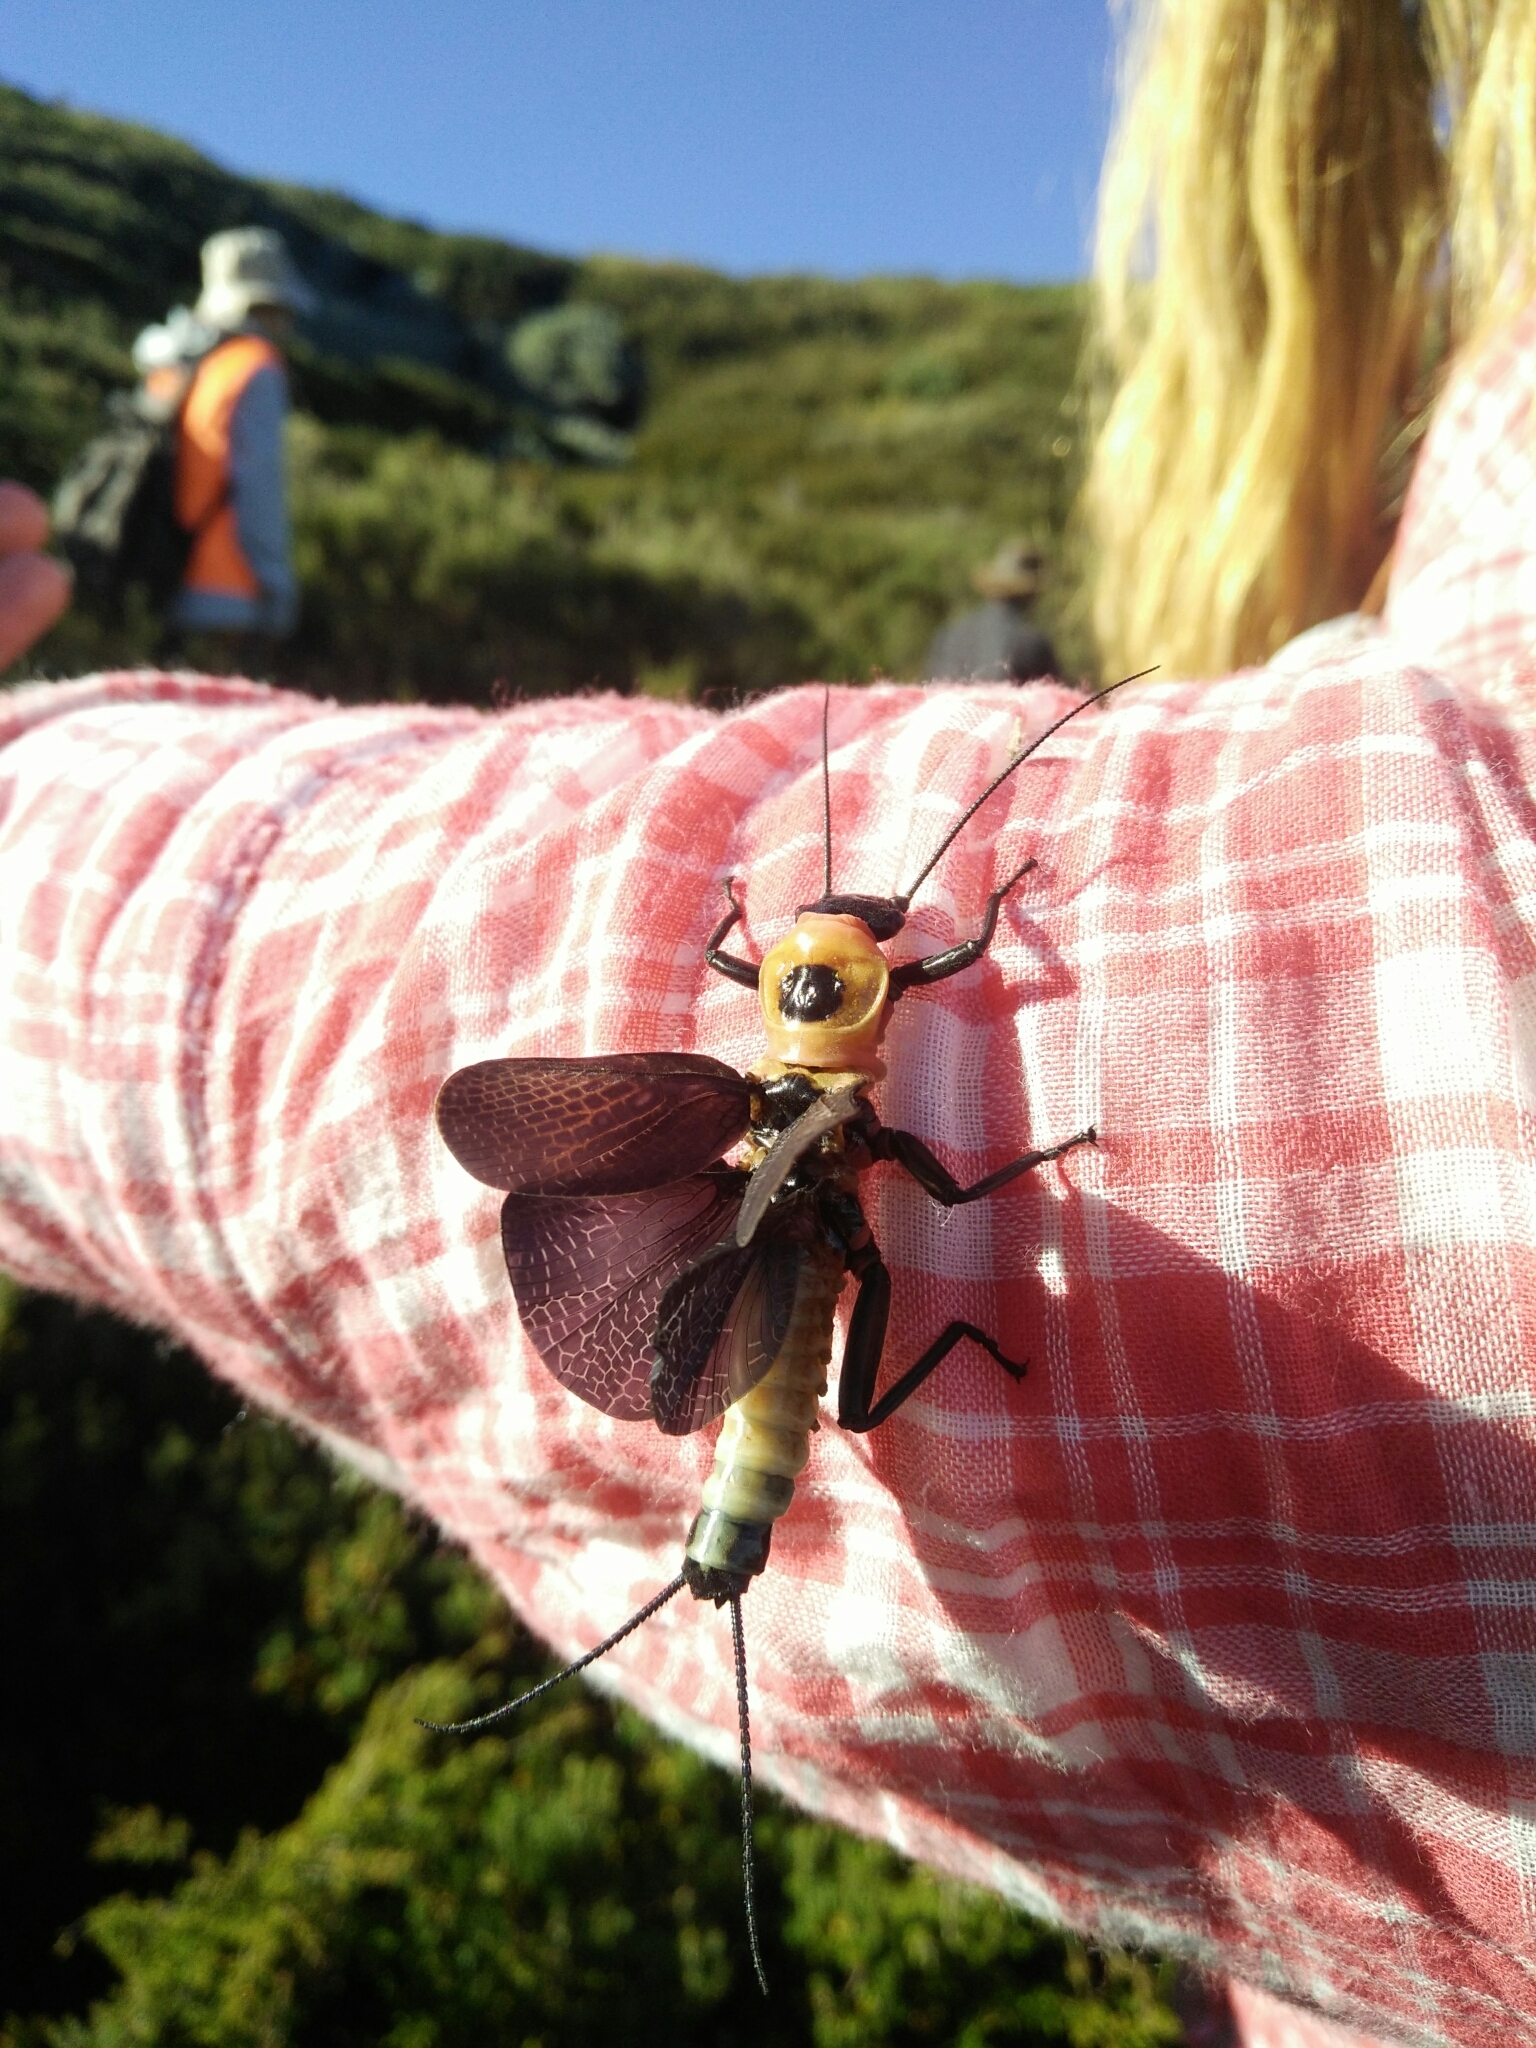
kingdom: Animalia
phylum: Arthropoda
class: Insecta
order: Plecoptera
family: Eustheniidae
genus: Thaumatoperla
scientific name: Thaumatoperla alpina
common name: Alpine stonefly
